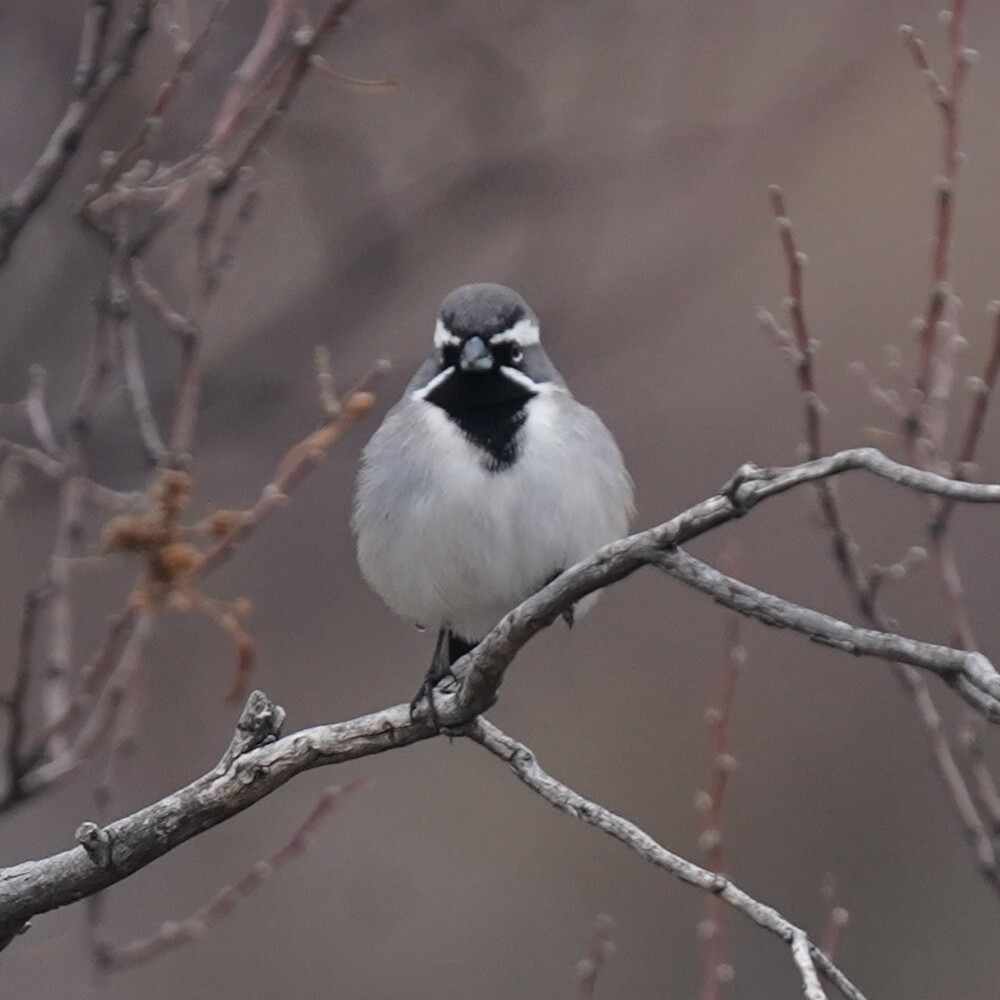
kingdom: Animalia
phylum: Chordata
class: Aves
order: Passeriformes
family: Passerellidae
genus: Amphispiza
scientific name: Amphispiza bilineata
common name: Black-throated sparrow
